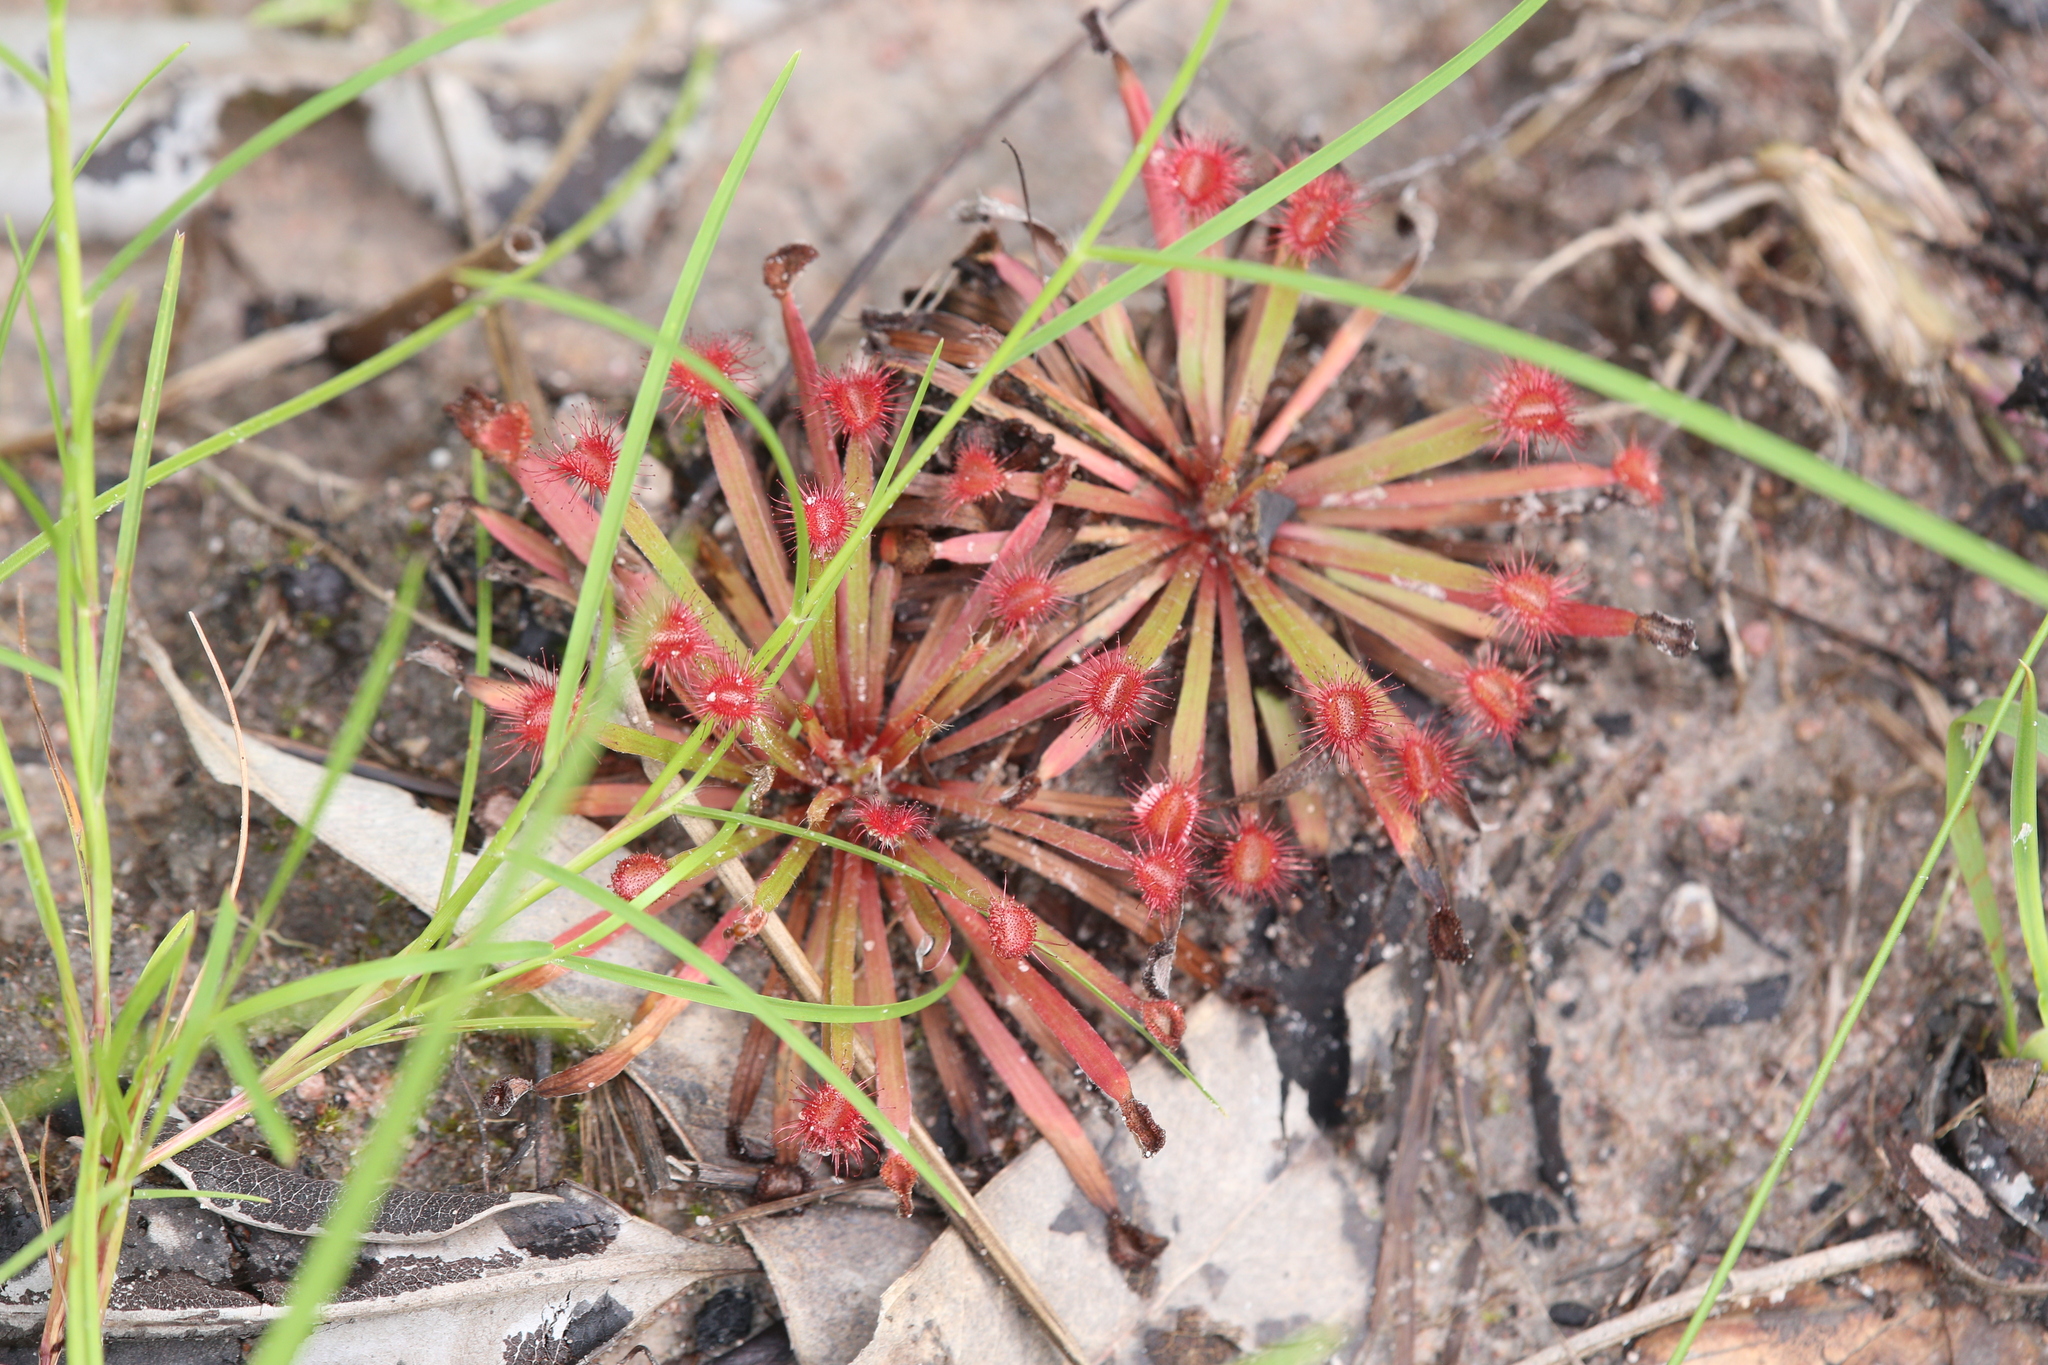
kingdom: Plantae
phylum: Tracheophyta
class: Magnoliopsida
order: Caryophyllales
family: Droseraceae
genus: Drosera
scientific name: Drosera dilatatopetiolaris
